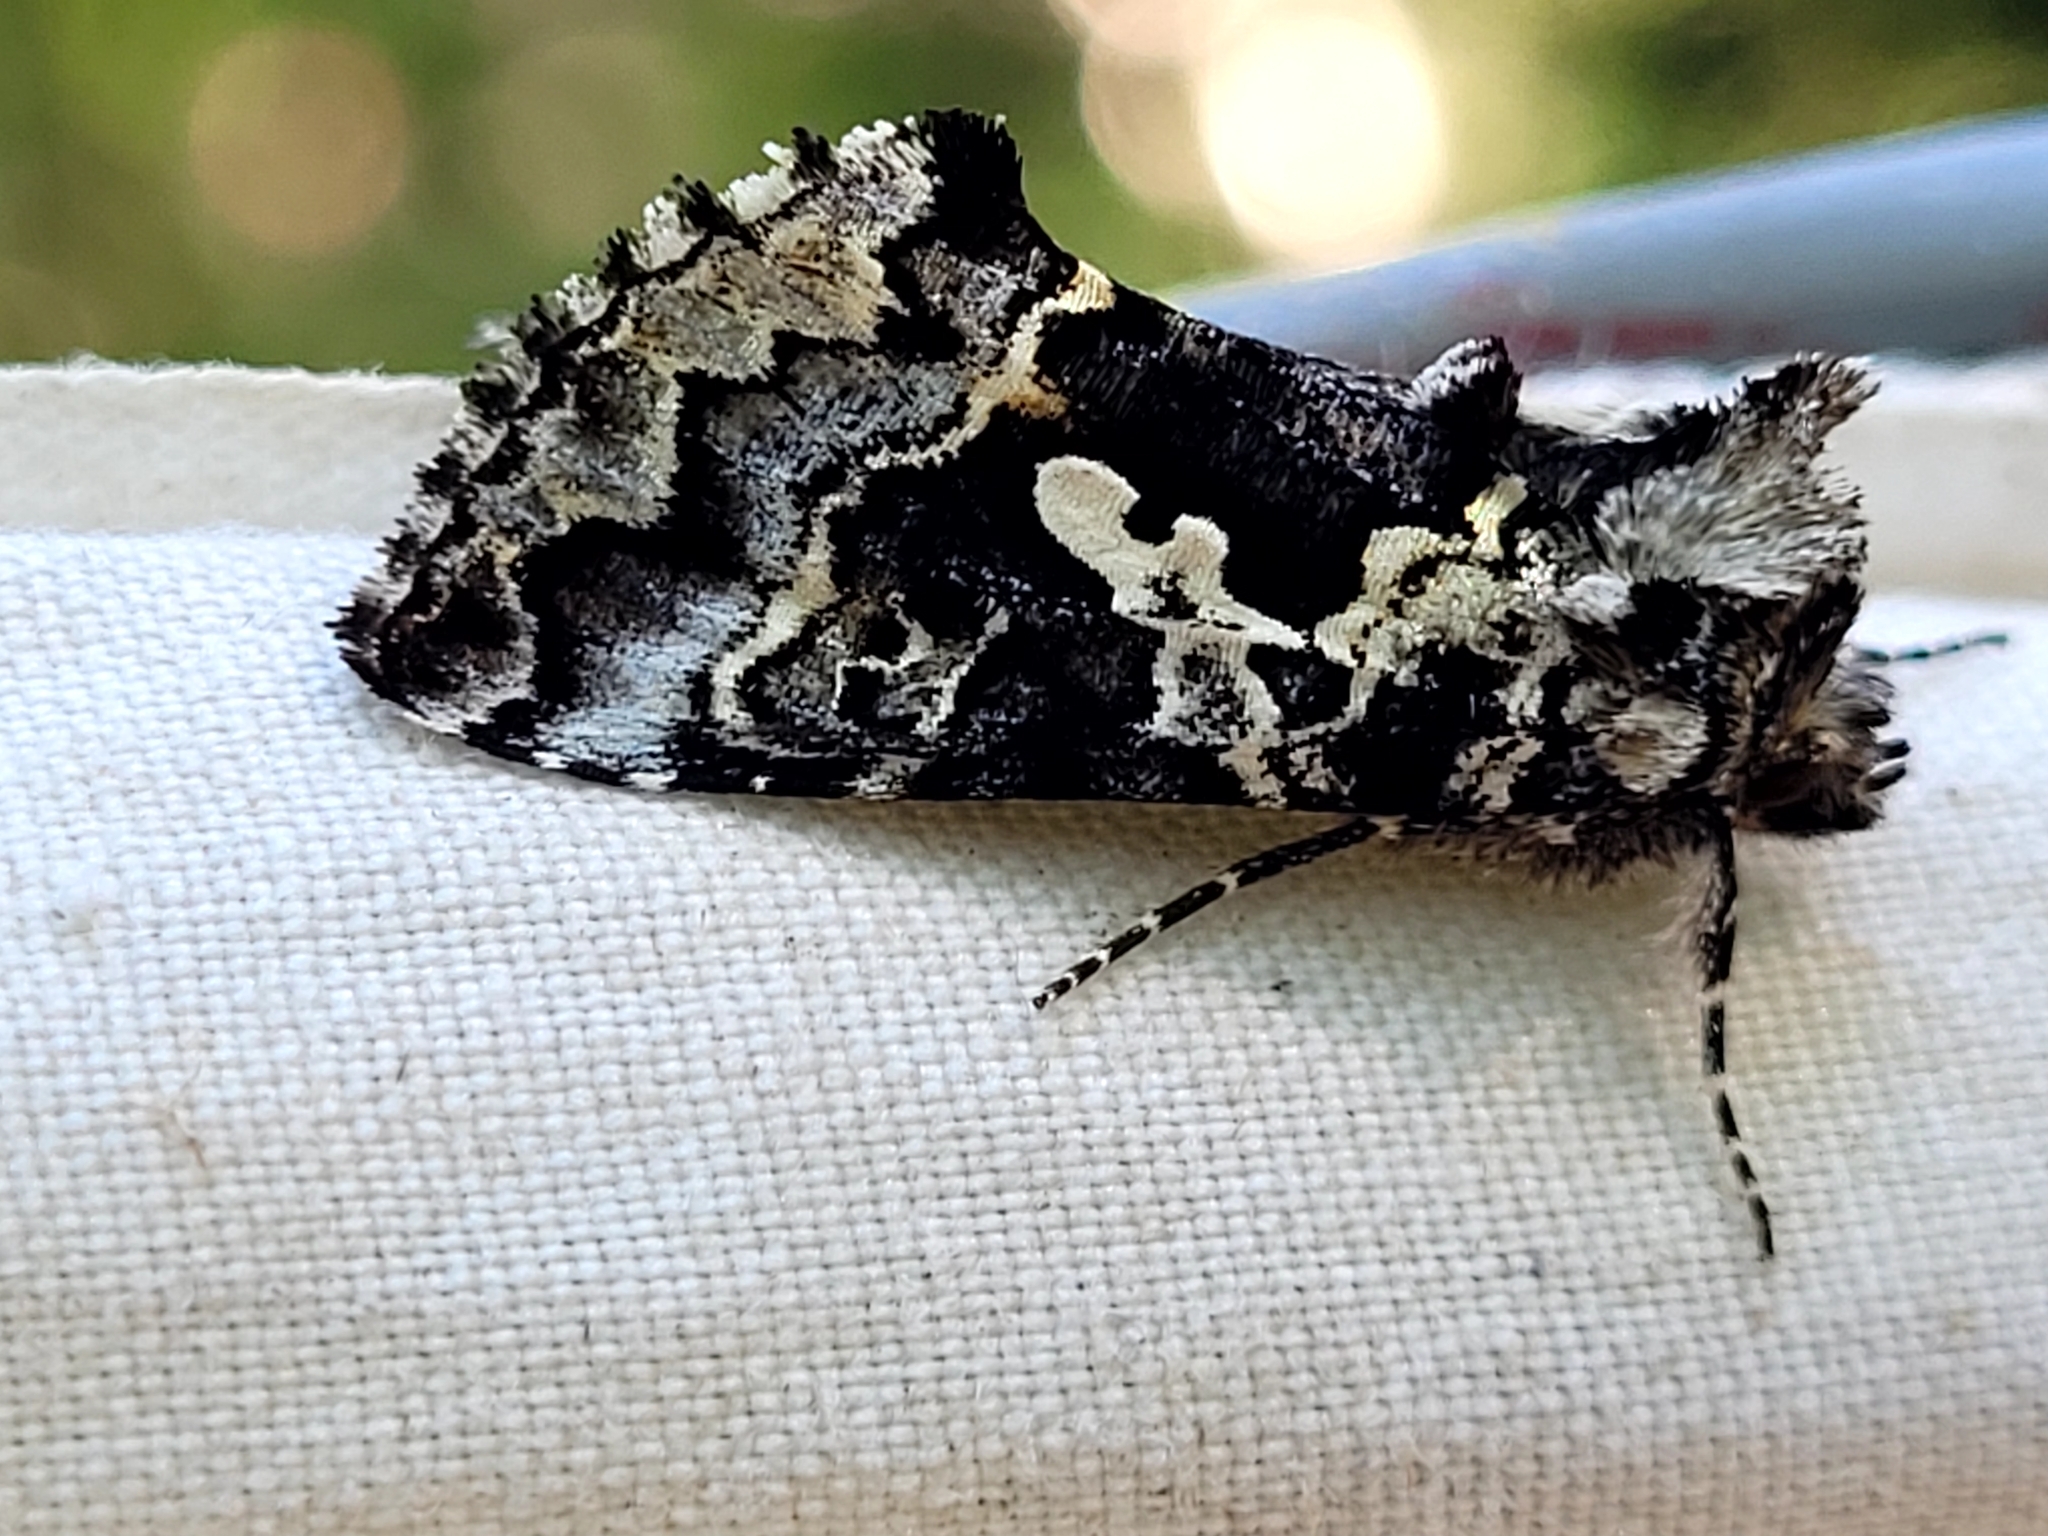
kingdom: Animalia
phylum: Arthropoda
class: Insecta
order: Lepidoptera
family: Noctuidae
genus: Syngrapha
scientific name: Syngrapha rectangula
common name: Angulated cutworm
